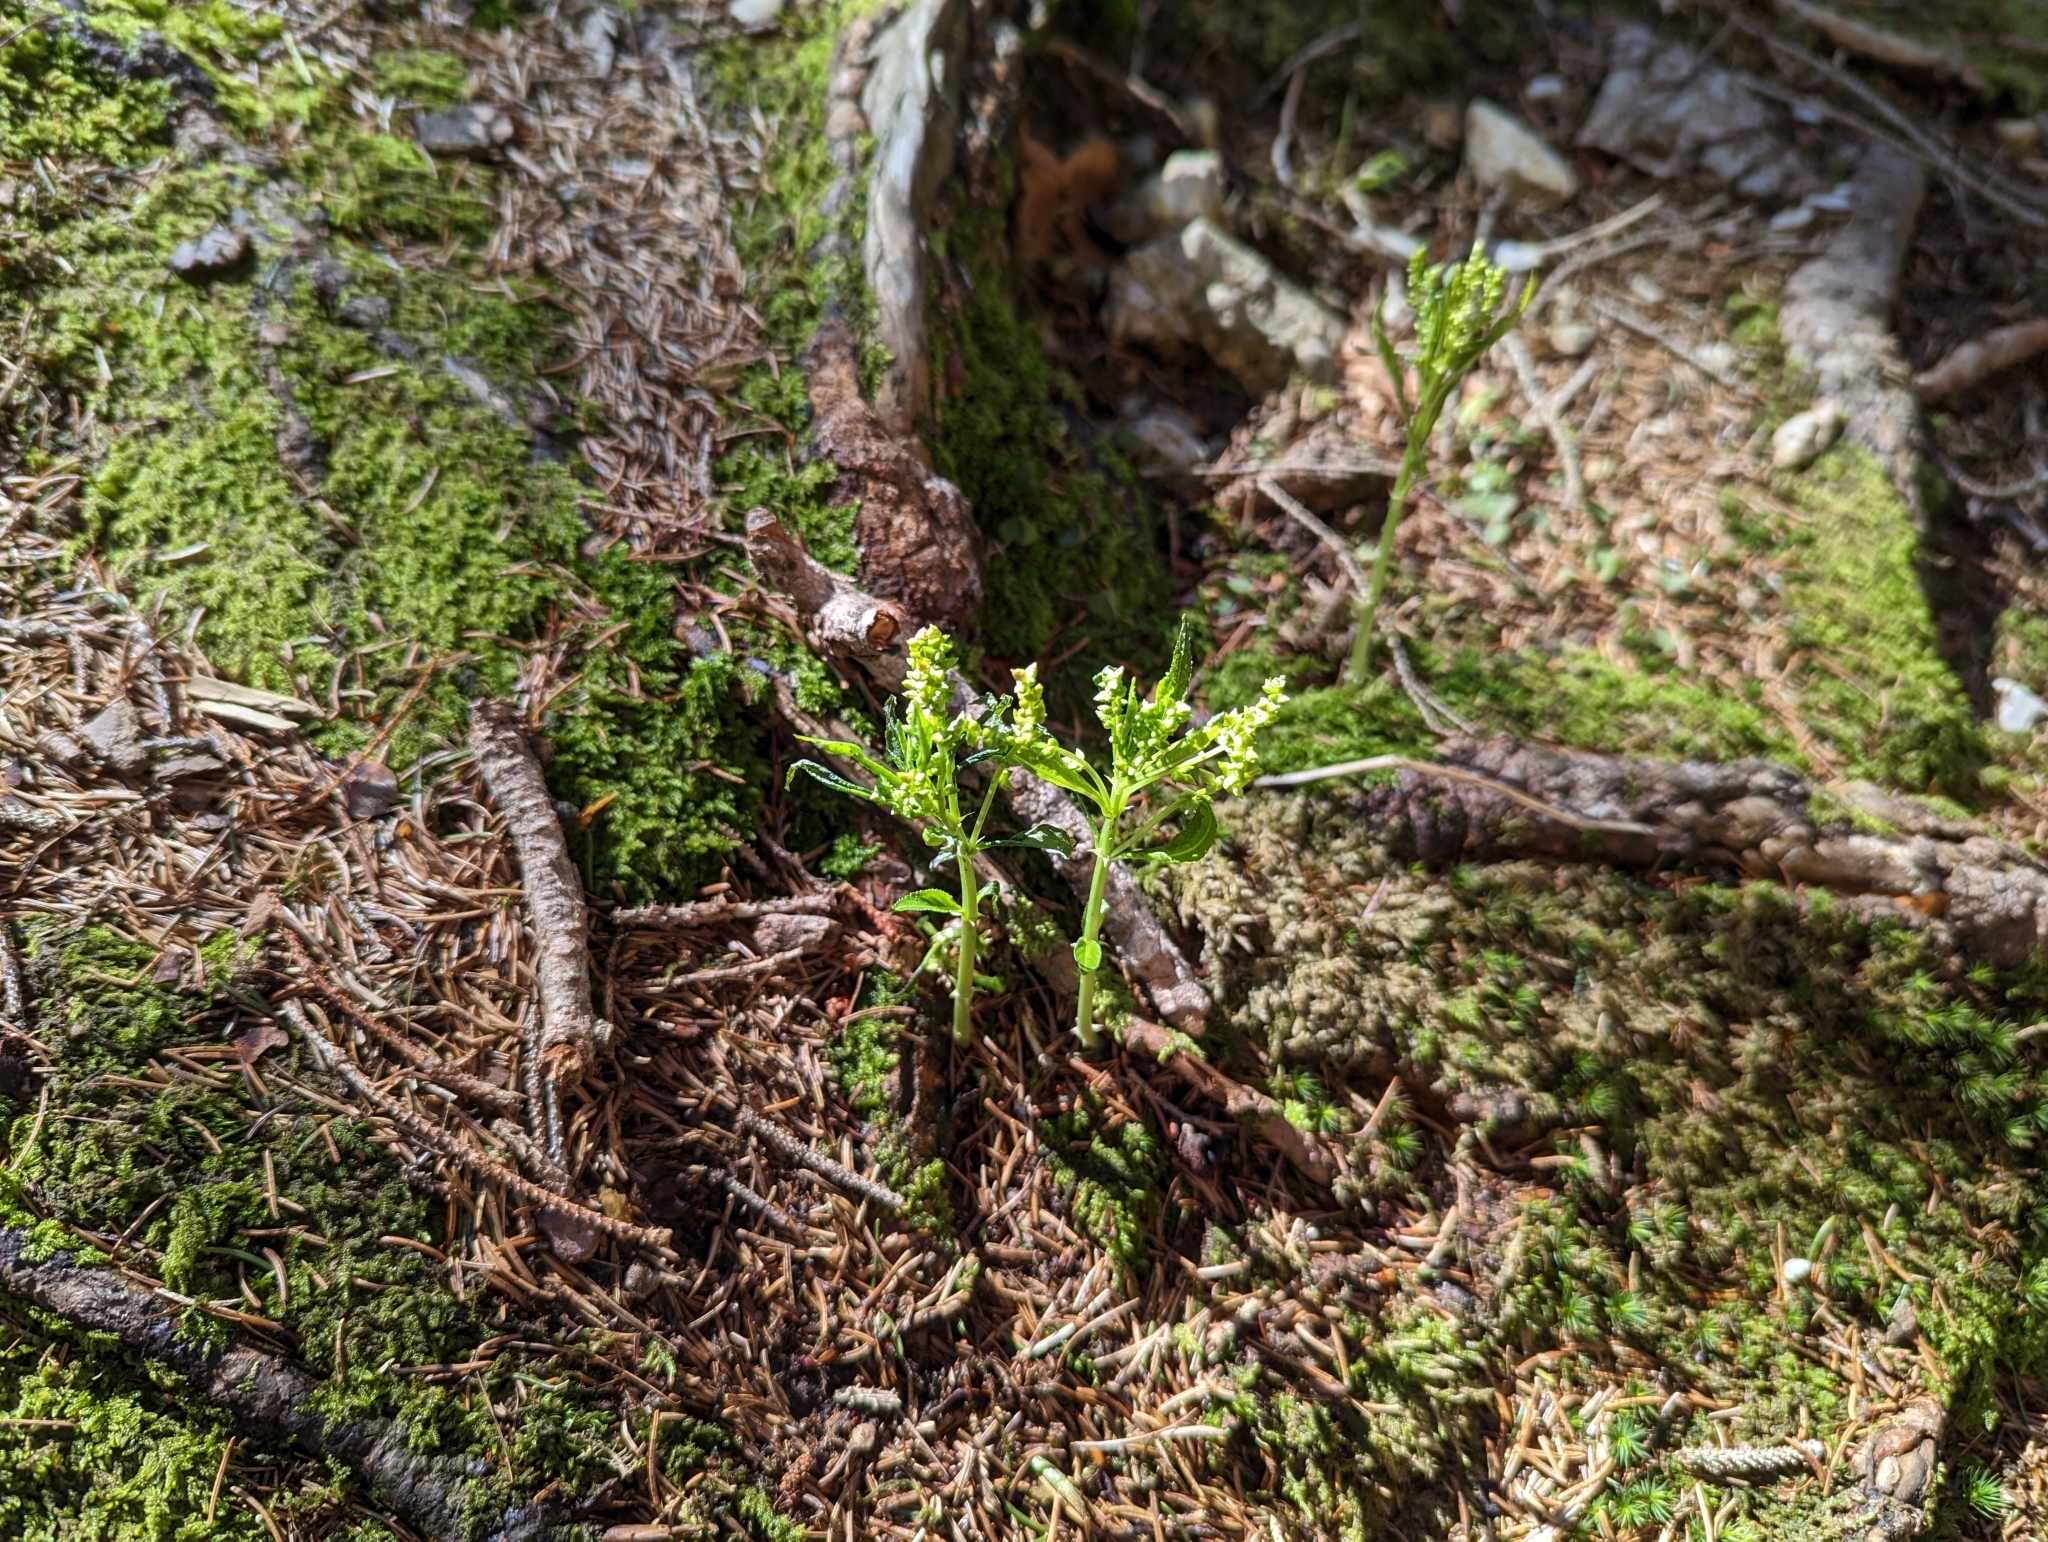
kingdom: Plantae
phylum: Tracheophyta
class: Magnoliopsida
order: Malpighiales
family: Euphorbiaceae
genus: Mercurialis
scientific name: Mercurialis perennis
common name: Dog mercury
